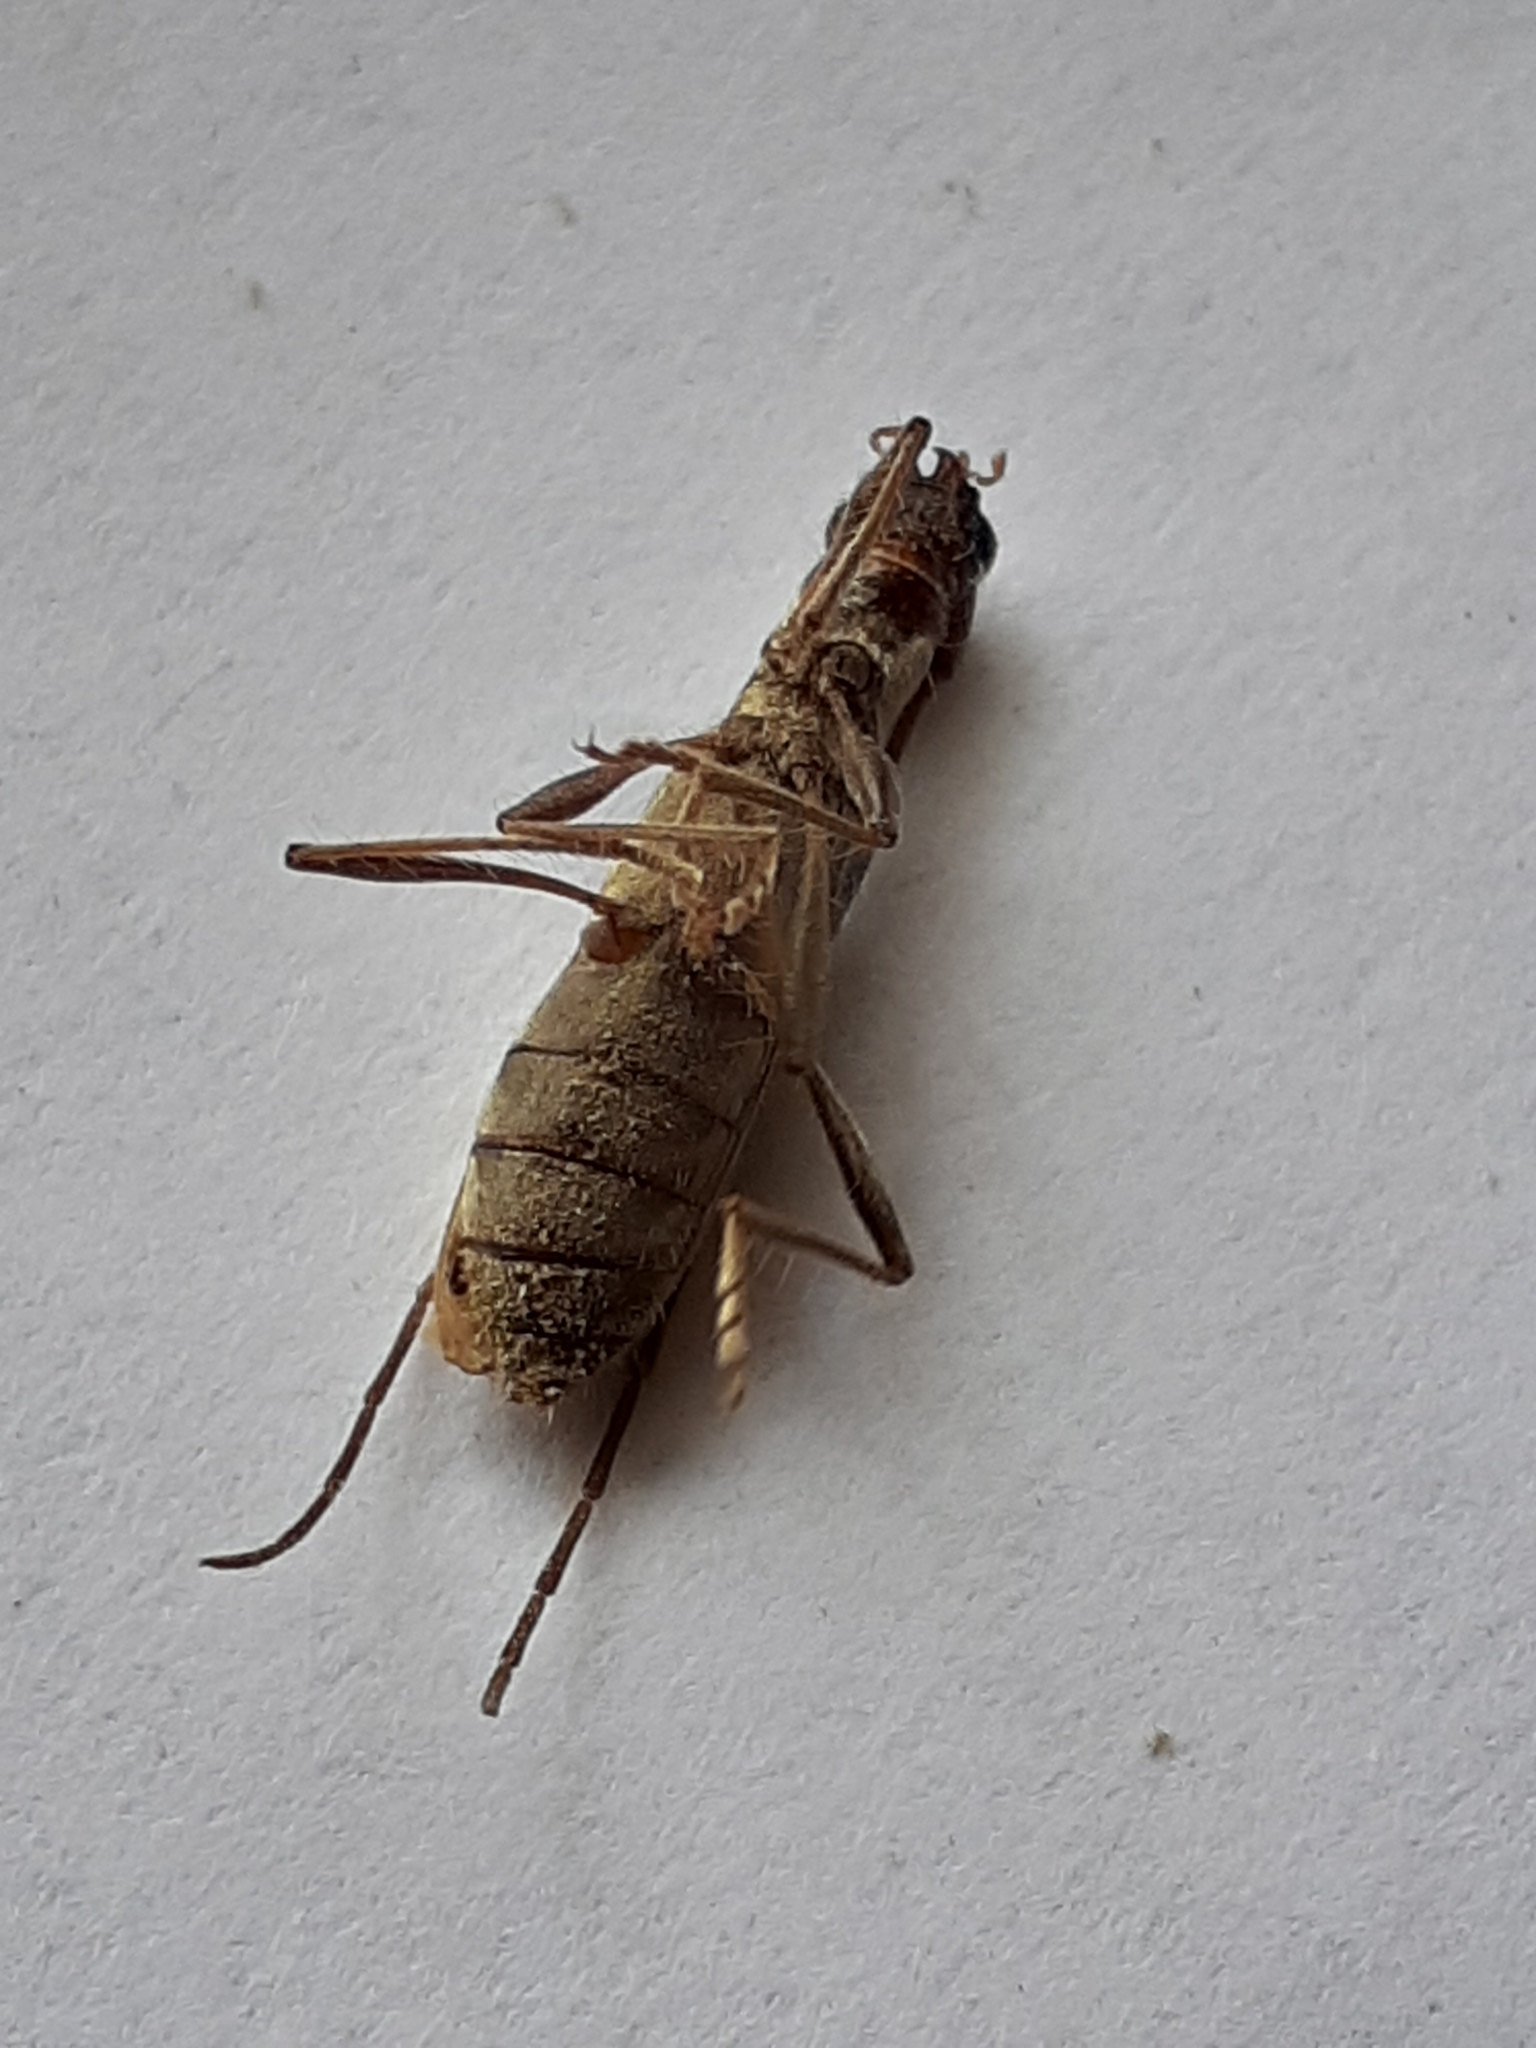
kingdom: Animalia
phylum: Arthropoda
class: Insecta
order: Coleoptera
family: Cerambycidae
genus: Asynapteron
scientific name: Asynapteron inca
